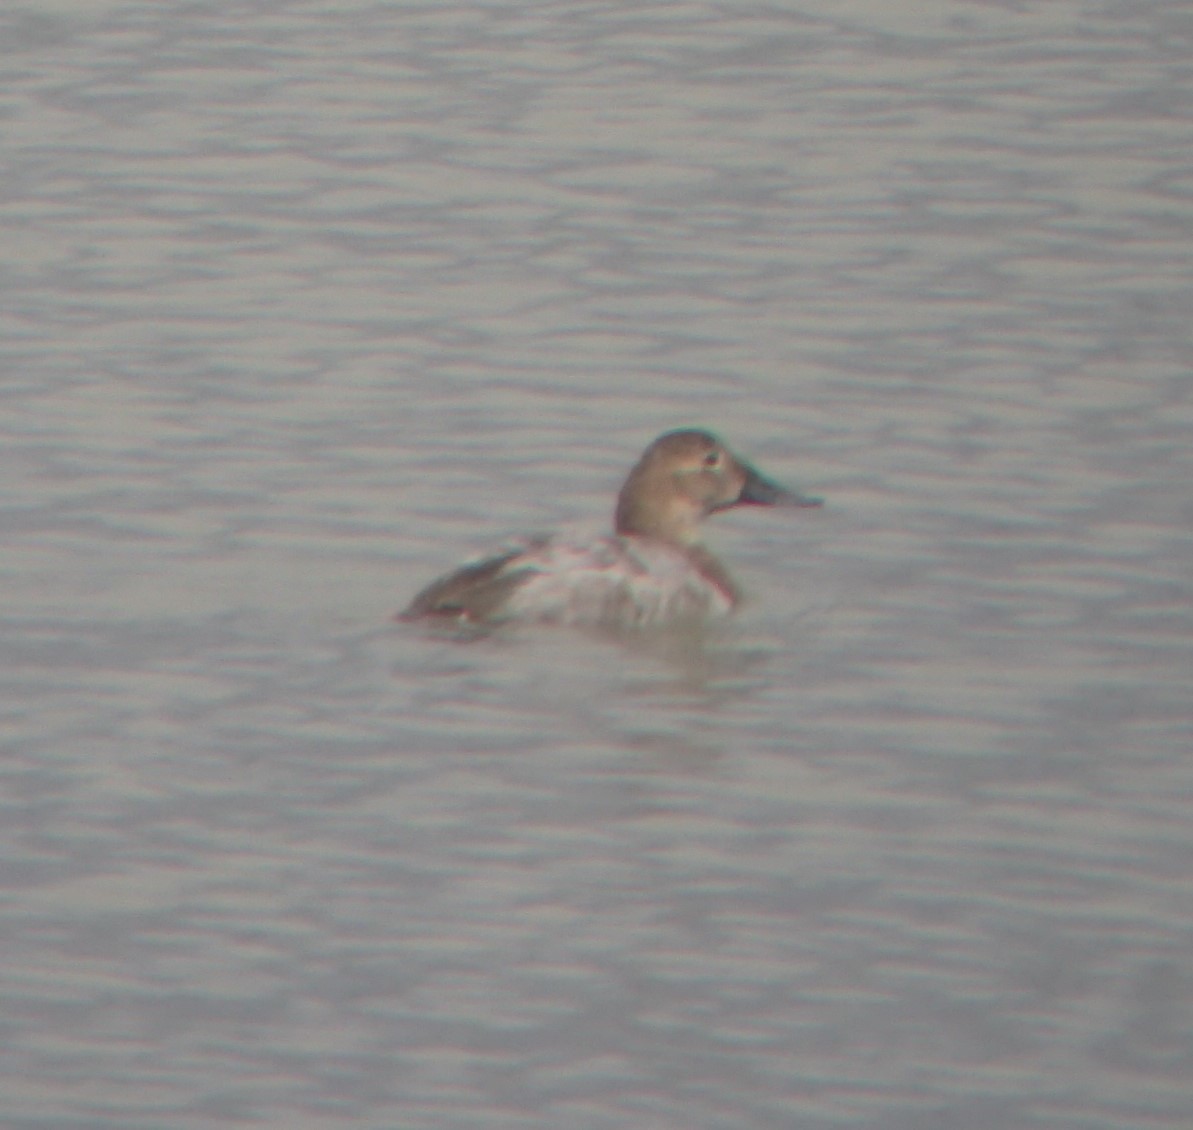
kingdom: Animalia
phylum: Chordata
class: Aves
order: Anseriformes
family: Anatidae
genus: Aythya
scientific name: Aythya valisineria
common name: Canvasback
